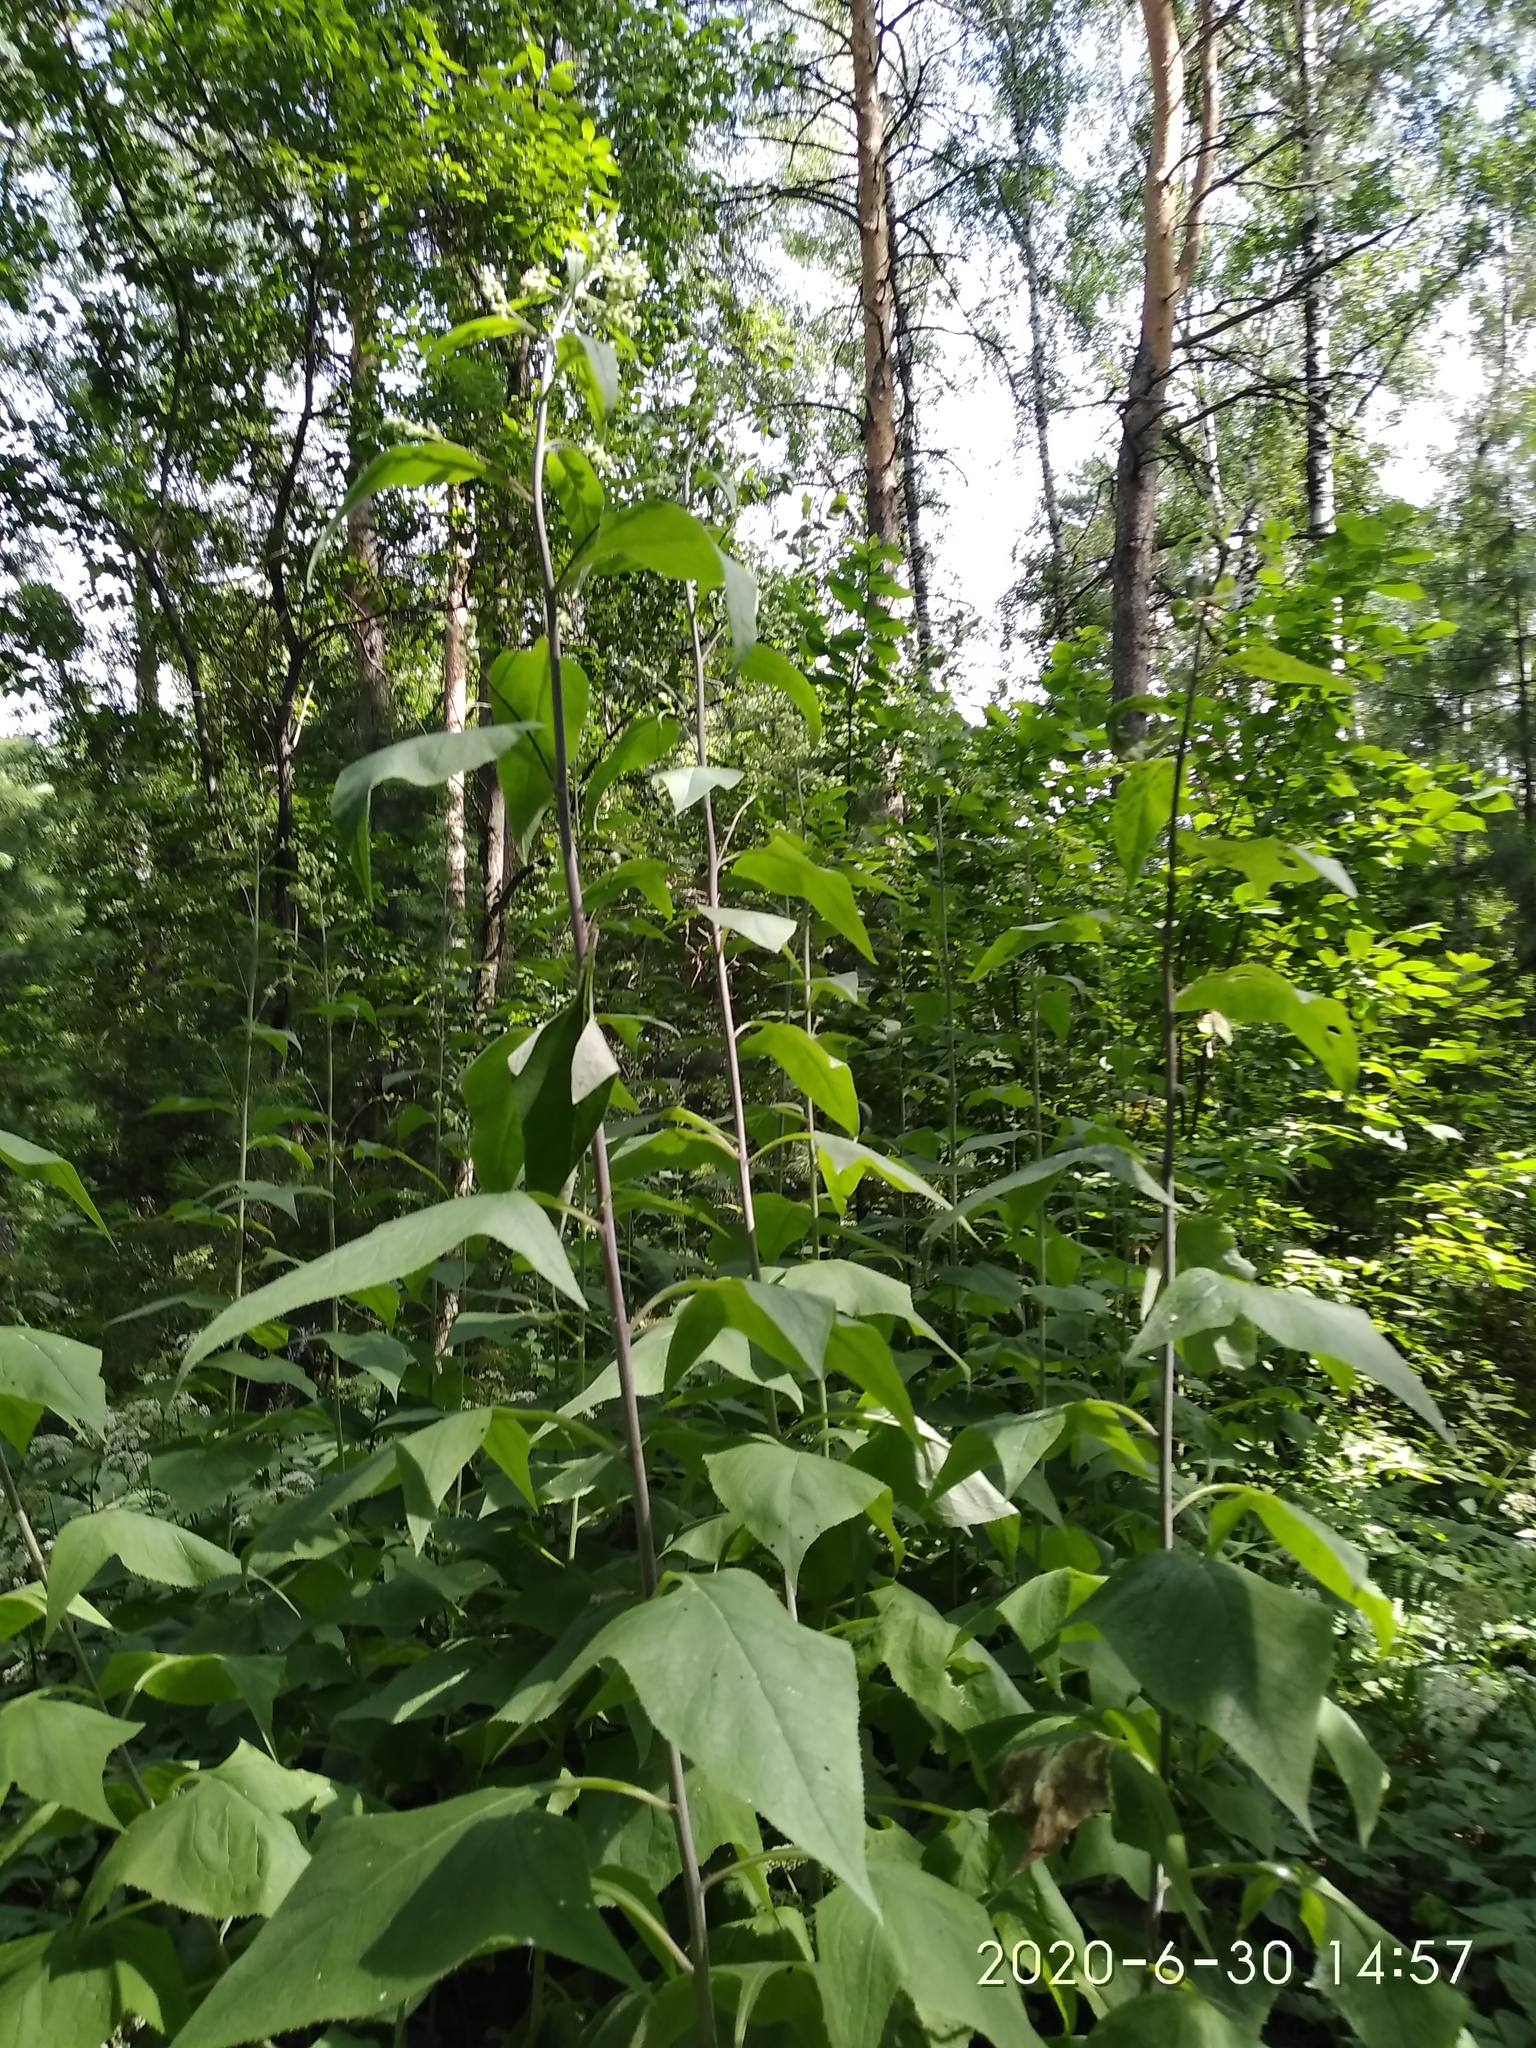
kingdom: Plantae
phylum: Tracheophyta
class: Magnoliopsida
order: Asterales
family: Asteraceae
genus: Parasenecio
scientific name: Parasenecio hastatus
